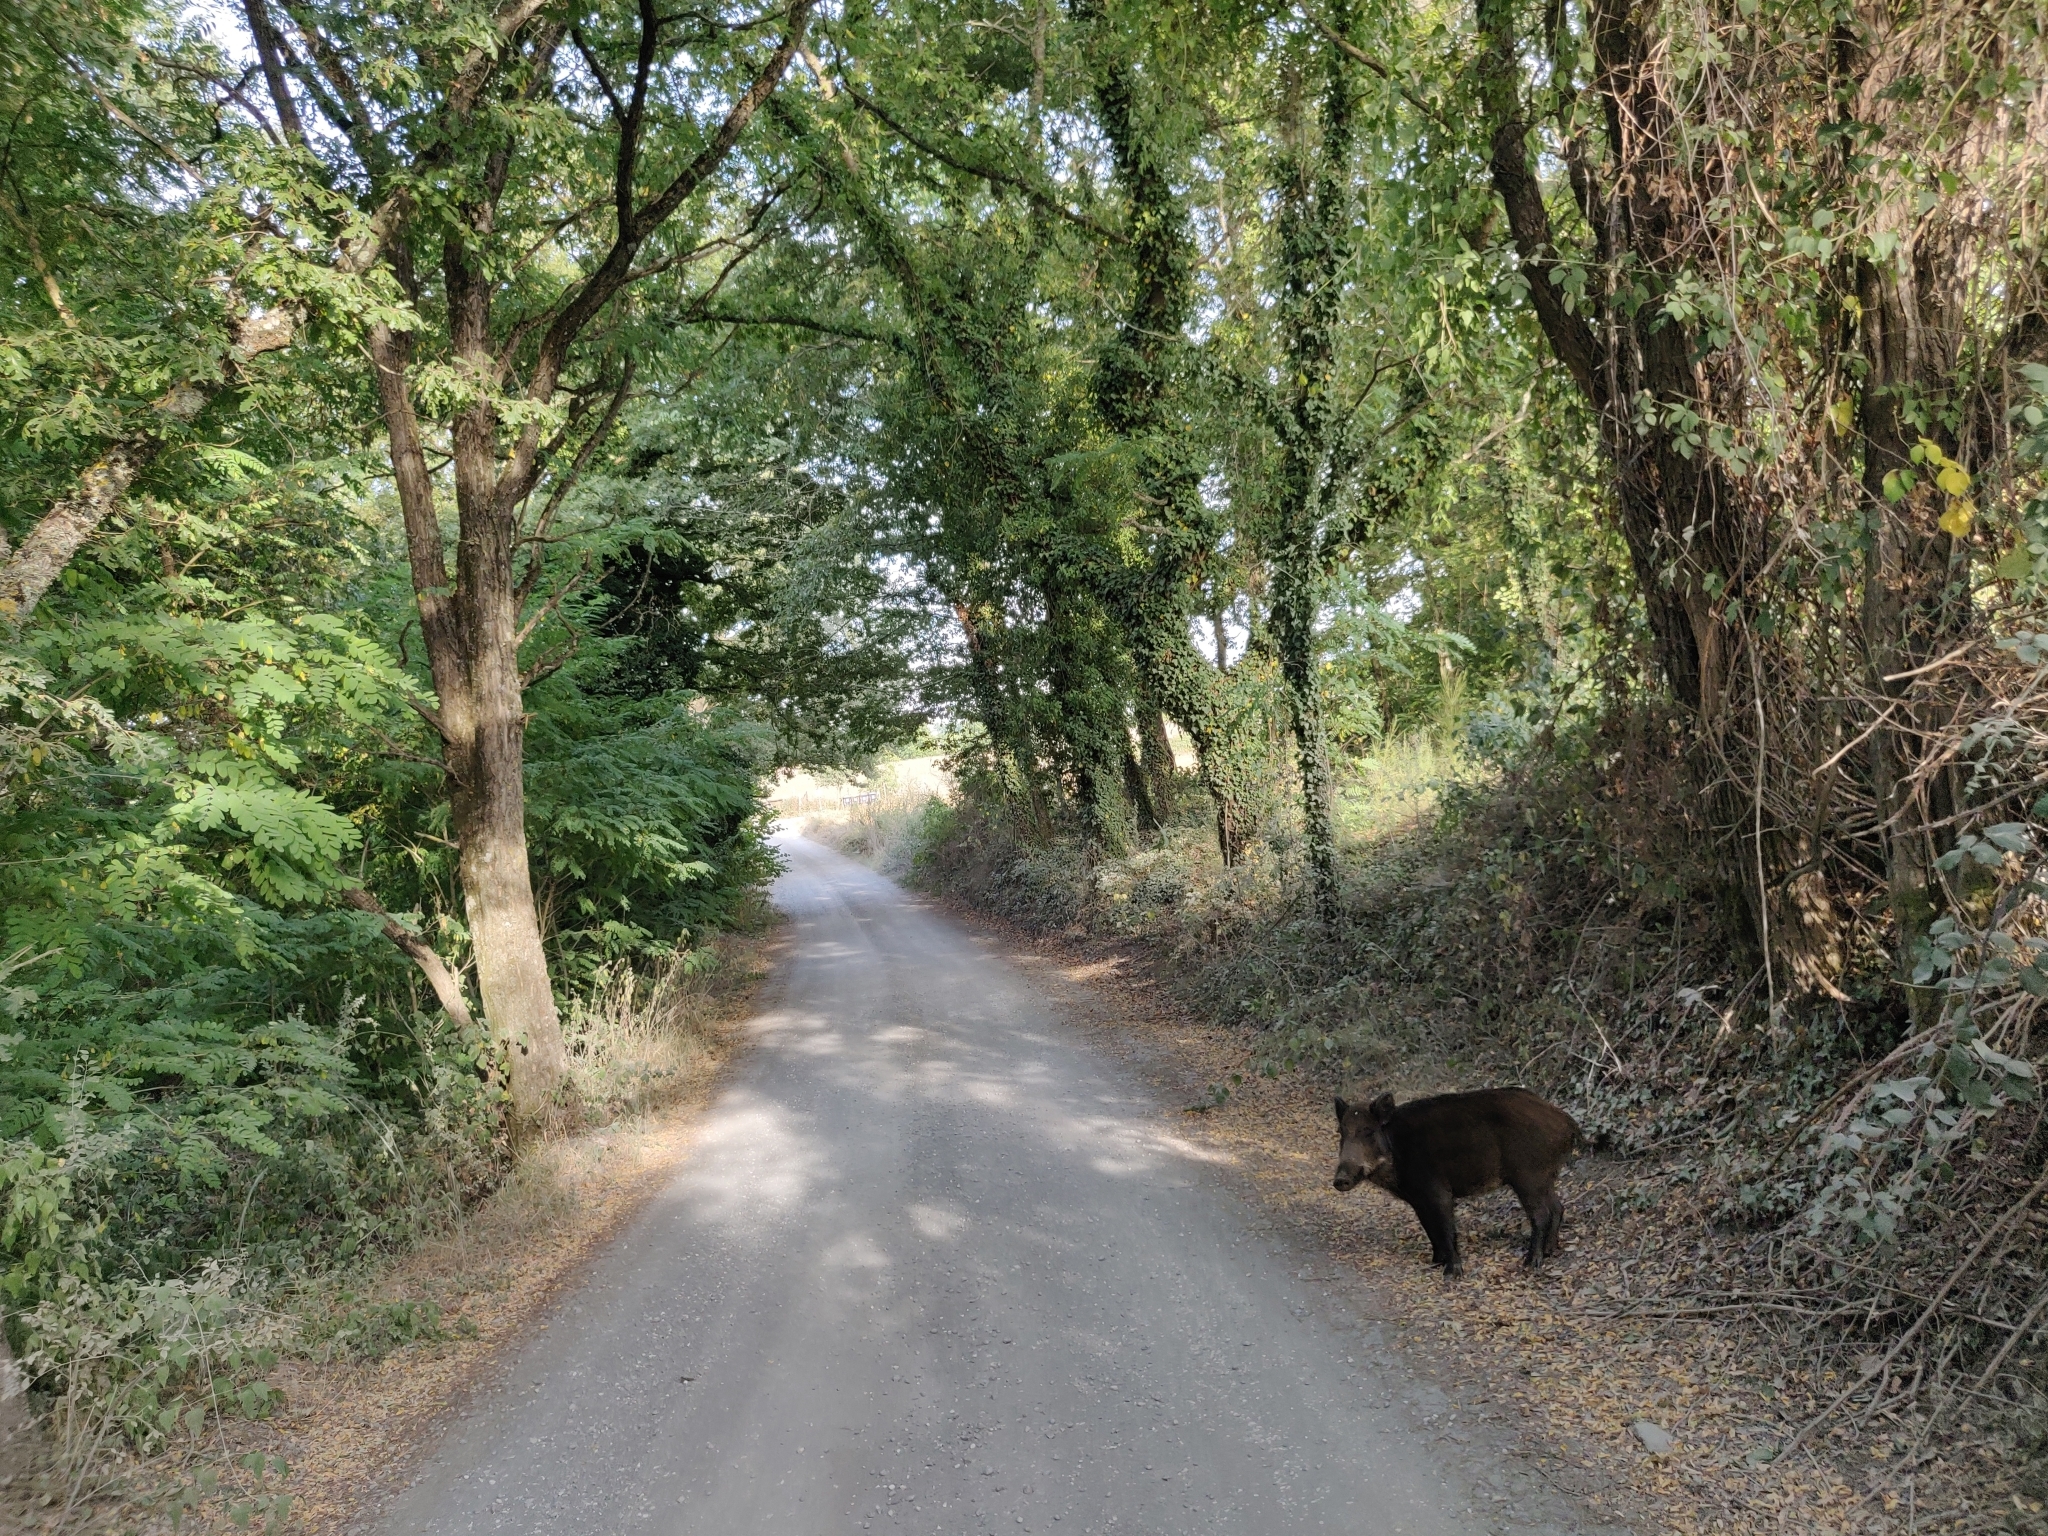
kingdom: Animalia
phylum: Chordata
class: Mammalia
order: Artiodactyla
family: Suidae
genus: Sus
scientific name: Sus scrofa
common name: Wild boar
